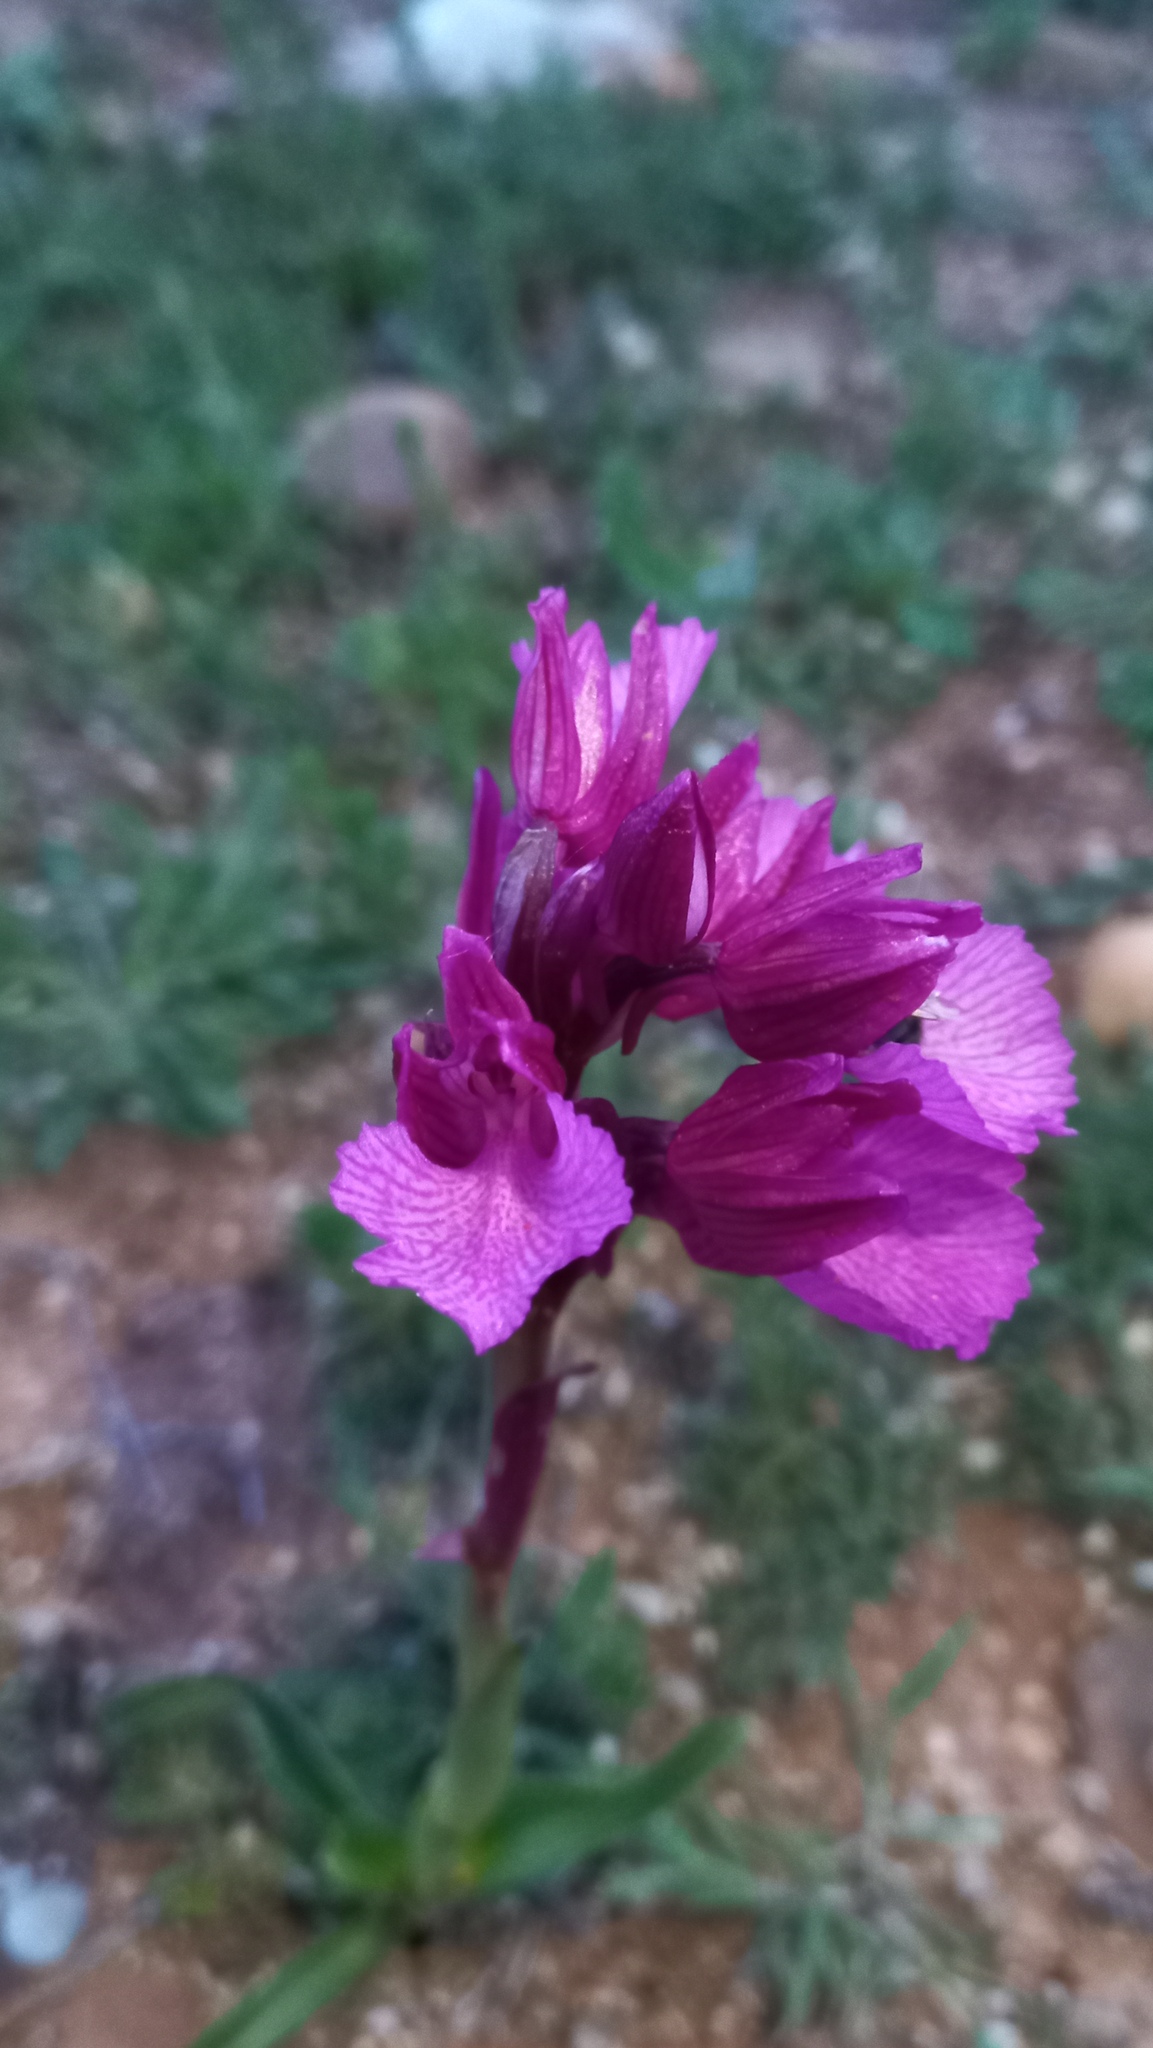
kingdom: Plantae
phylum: Tracheophyta
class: Liliopsida
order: Asparagales
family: Orchidaceae
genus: Anacamptis
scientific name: Anacamptis papilionacea
